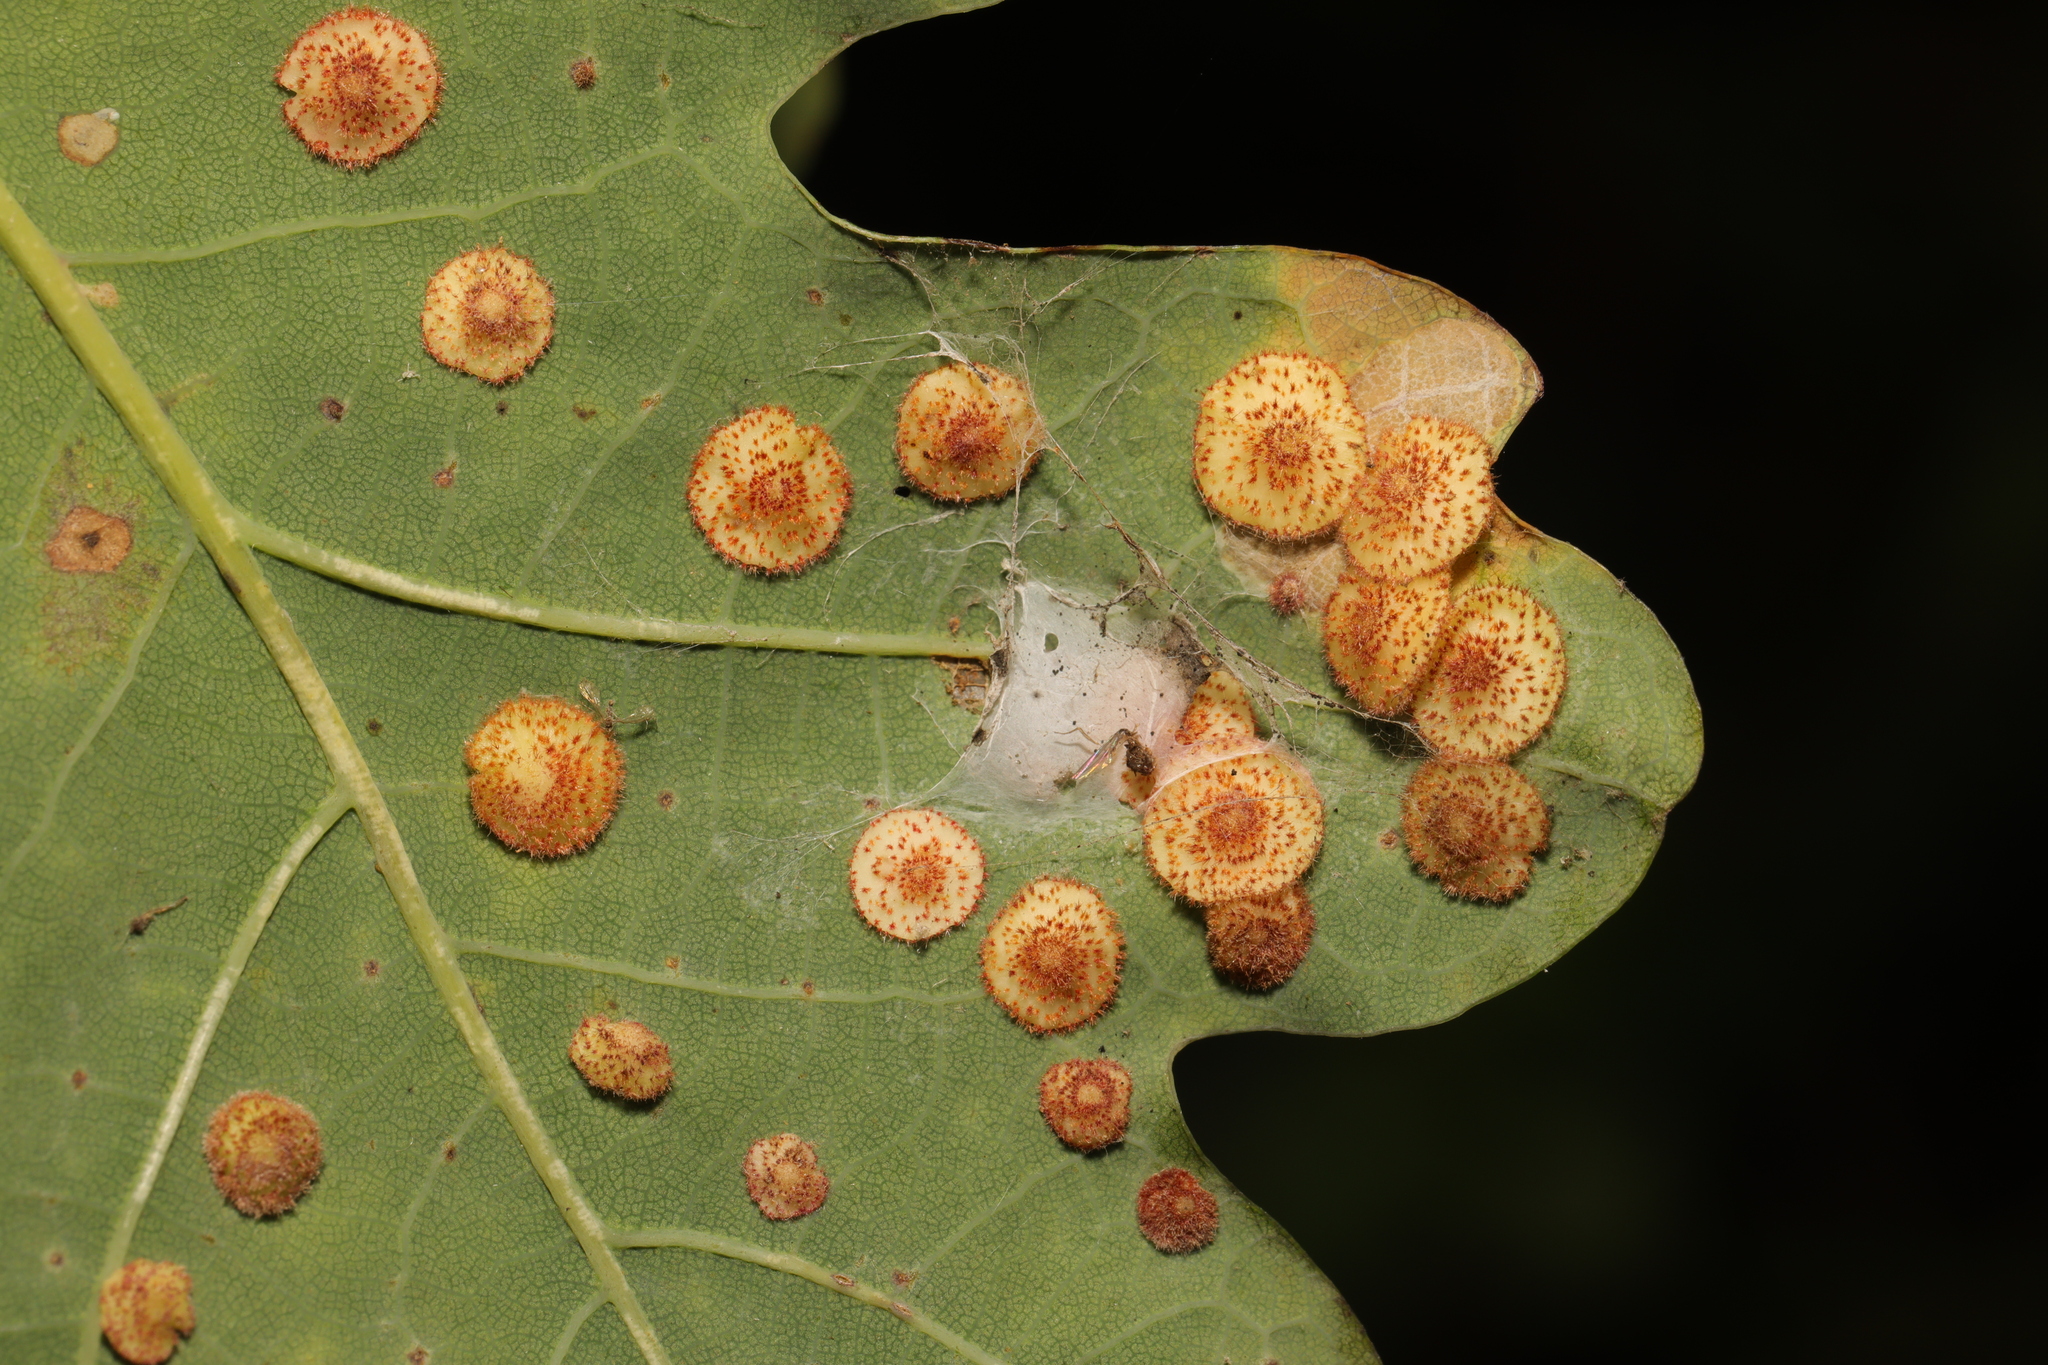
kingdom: Animalia
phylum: Arthropoda
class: Insecta
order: Hymenoptera
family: Cynipidae
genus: Neuroterus
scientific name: Neuroterus quercusbaccarum
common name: Common spangle gall
